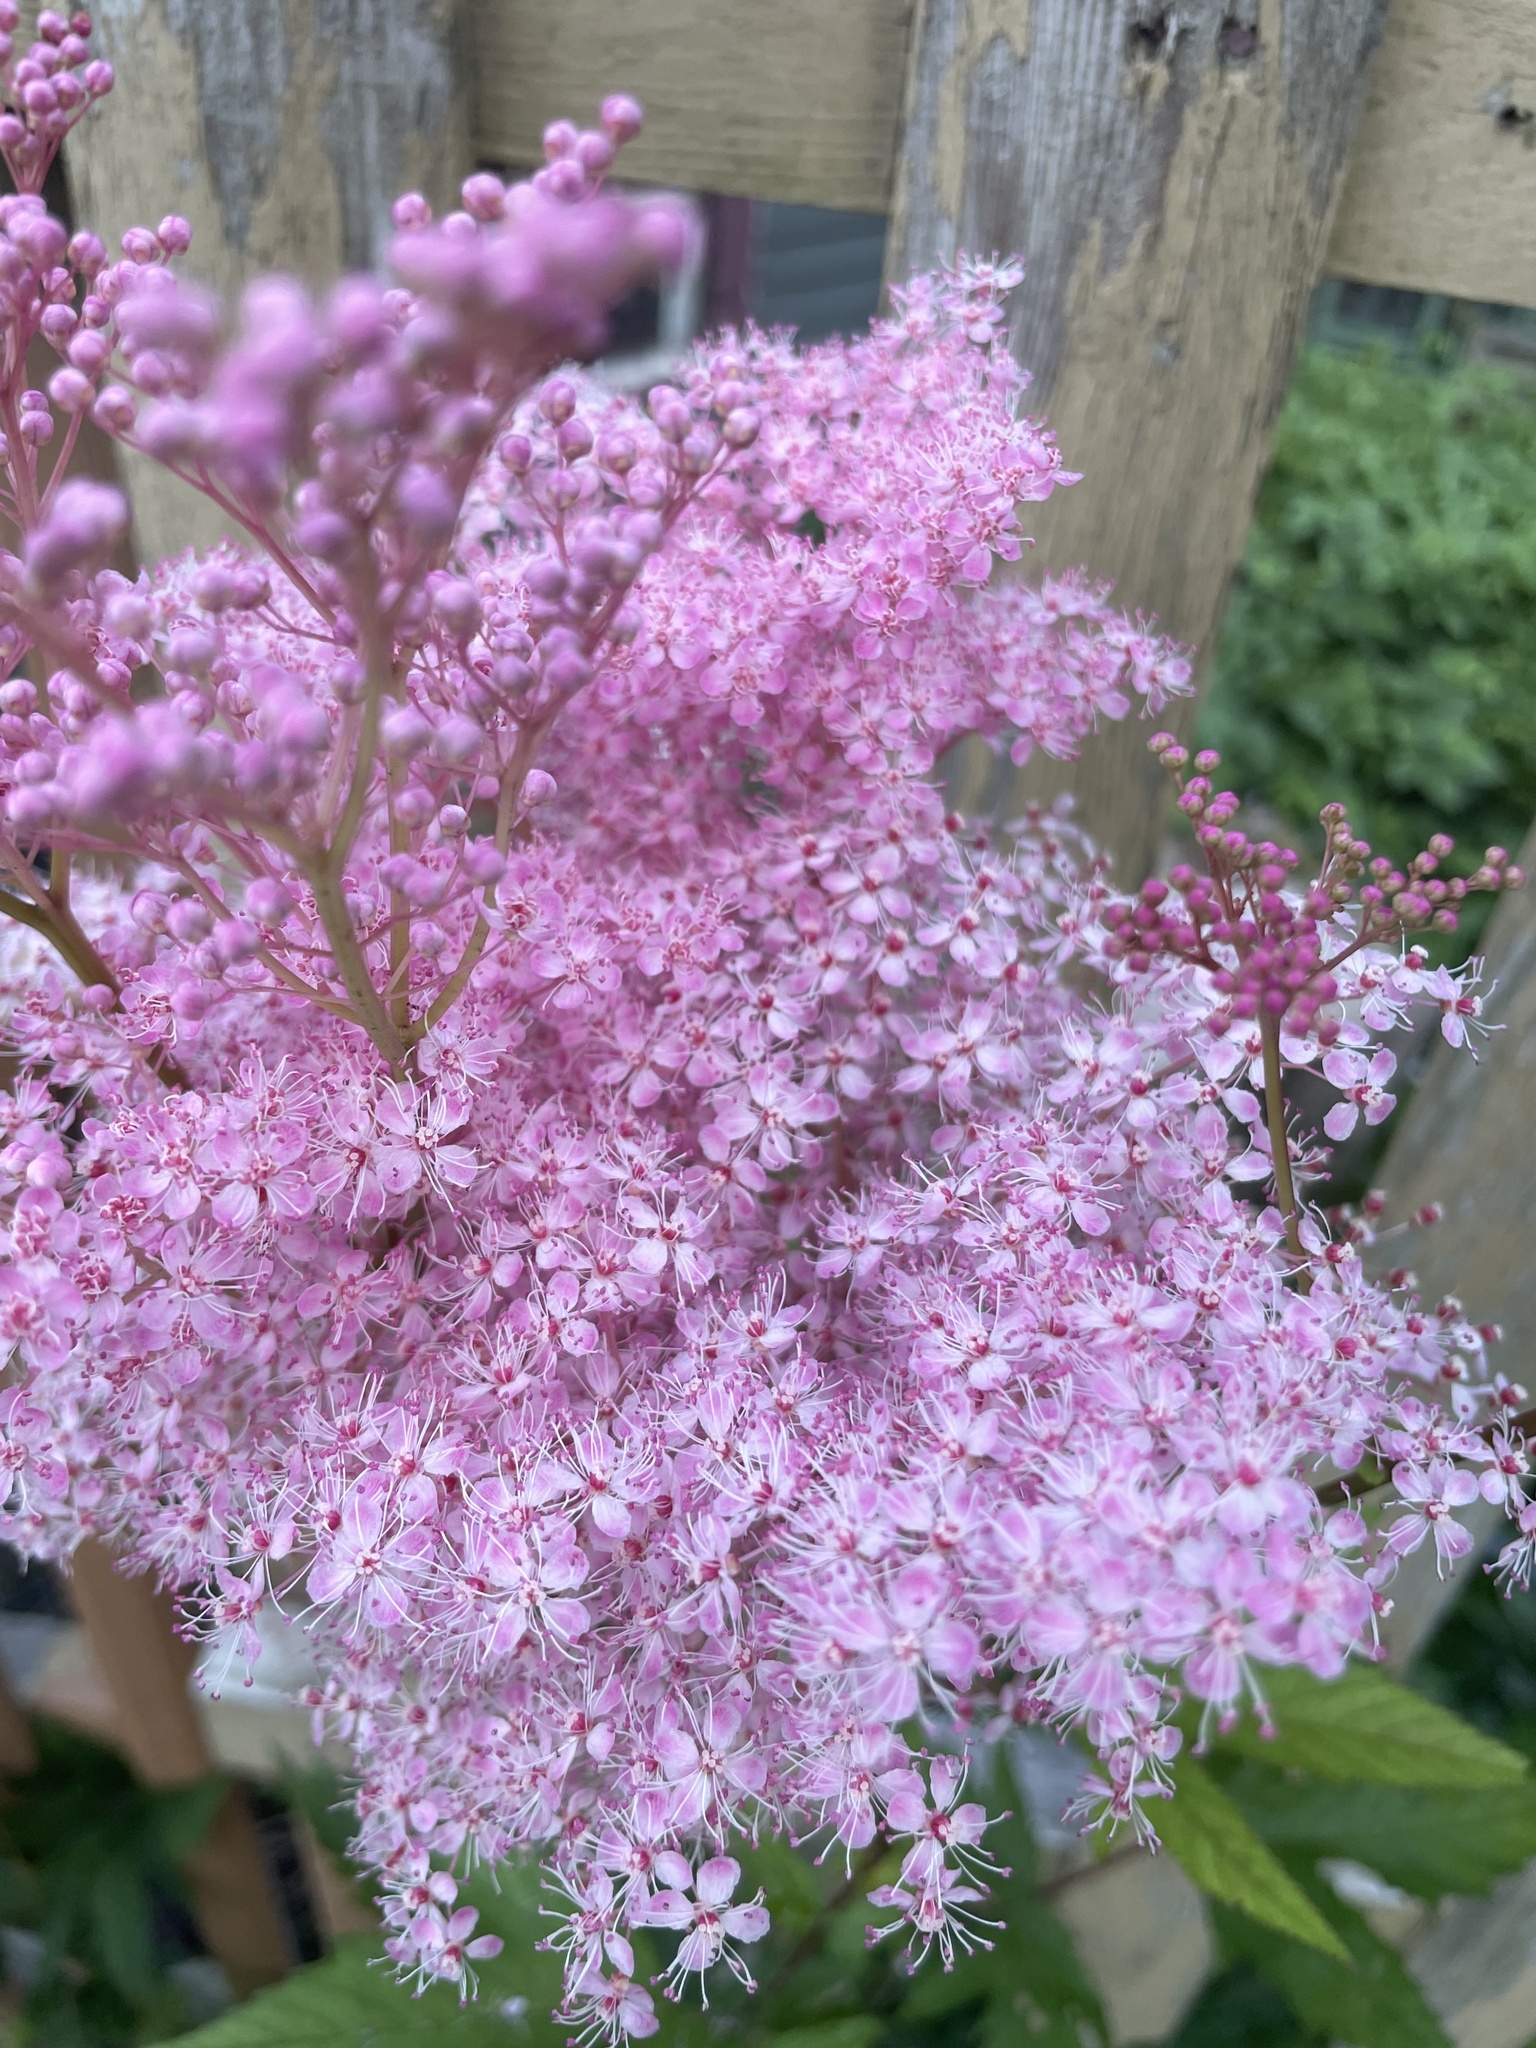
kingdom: Plantae
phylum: Tracheophyta
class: Magnoliopsida
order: Rosales
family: Rosaceae
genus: Filipendula
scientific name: Filipendula rubra
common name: Queen-of-the-prairie
